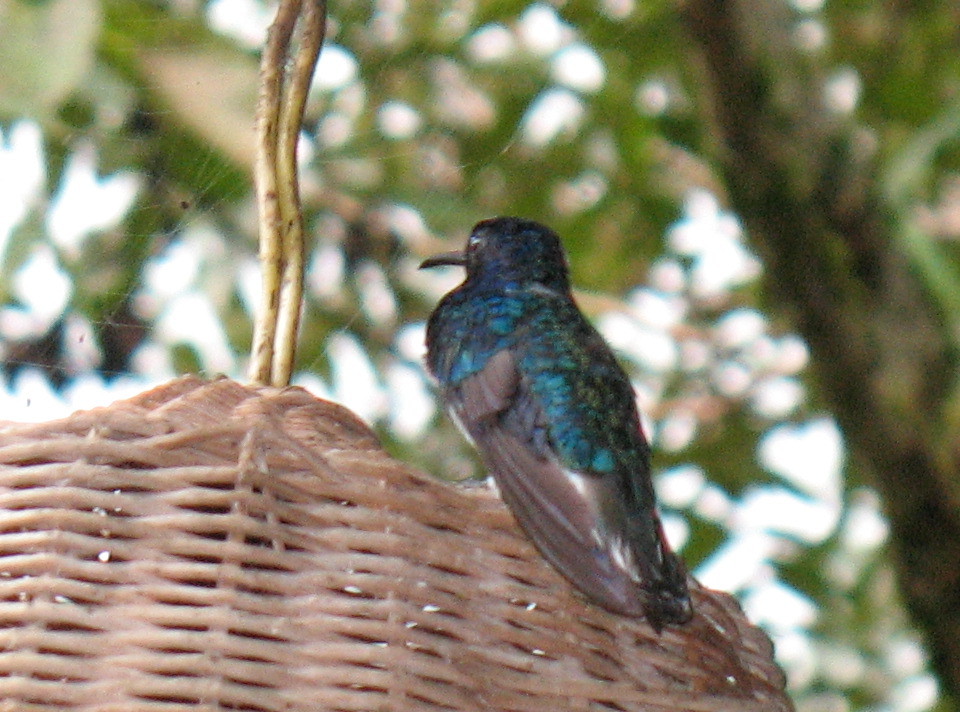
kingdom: Animalia
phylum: Chordata
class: Aves
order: Apodiformes
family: Trochilidae
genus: Florisuga
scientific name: Florisuga mellivora
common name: White-necked jacobin
